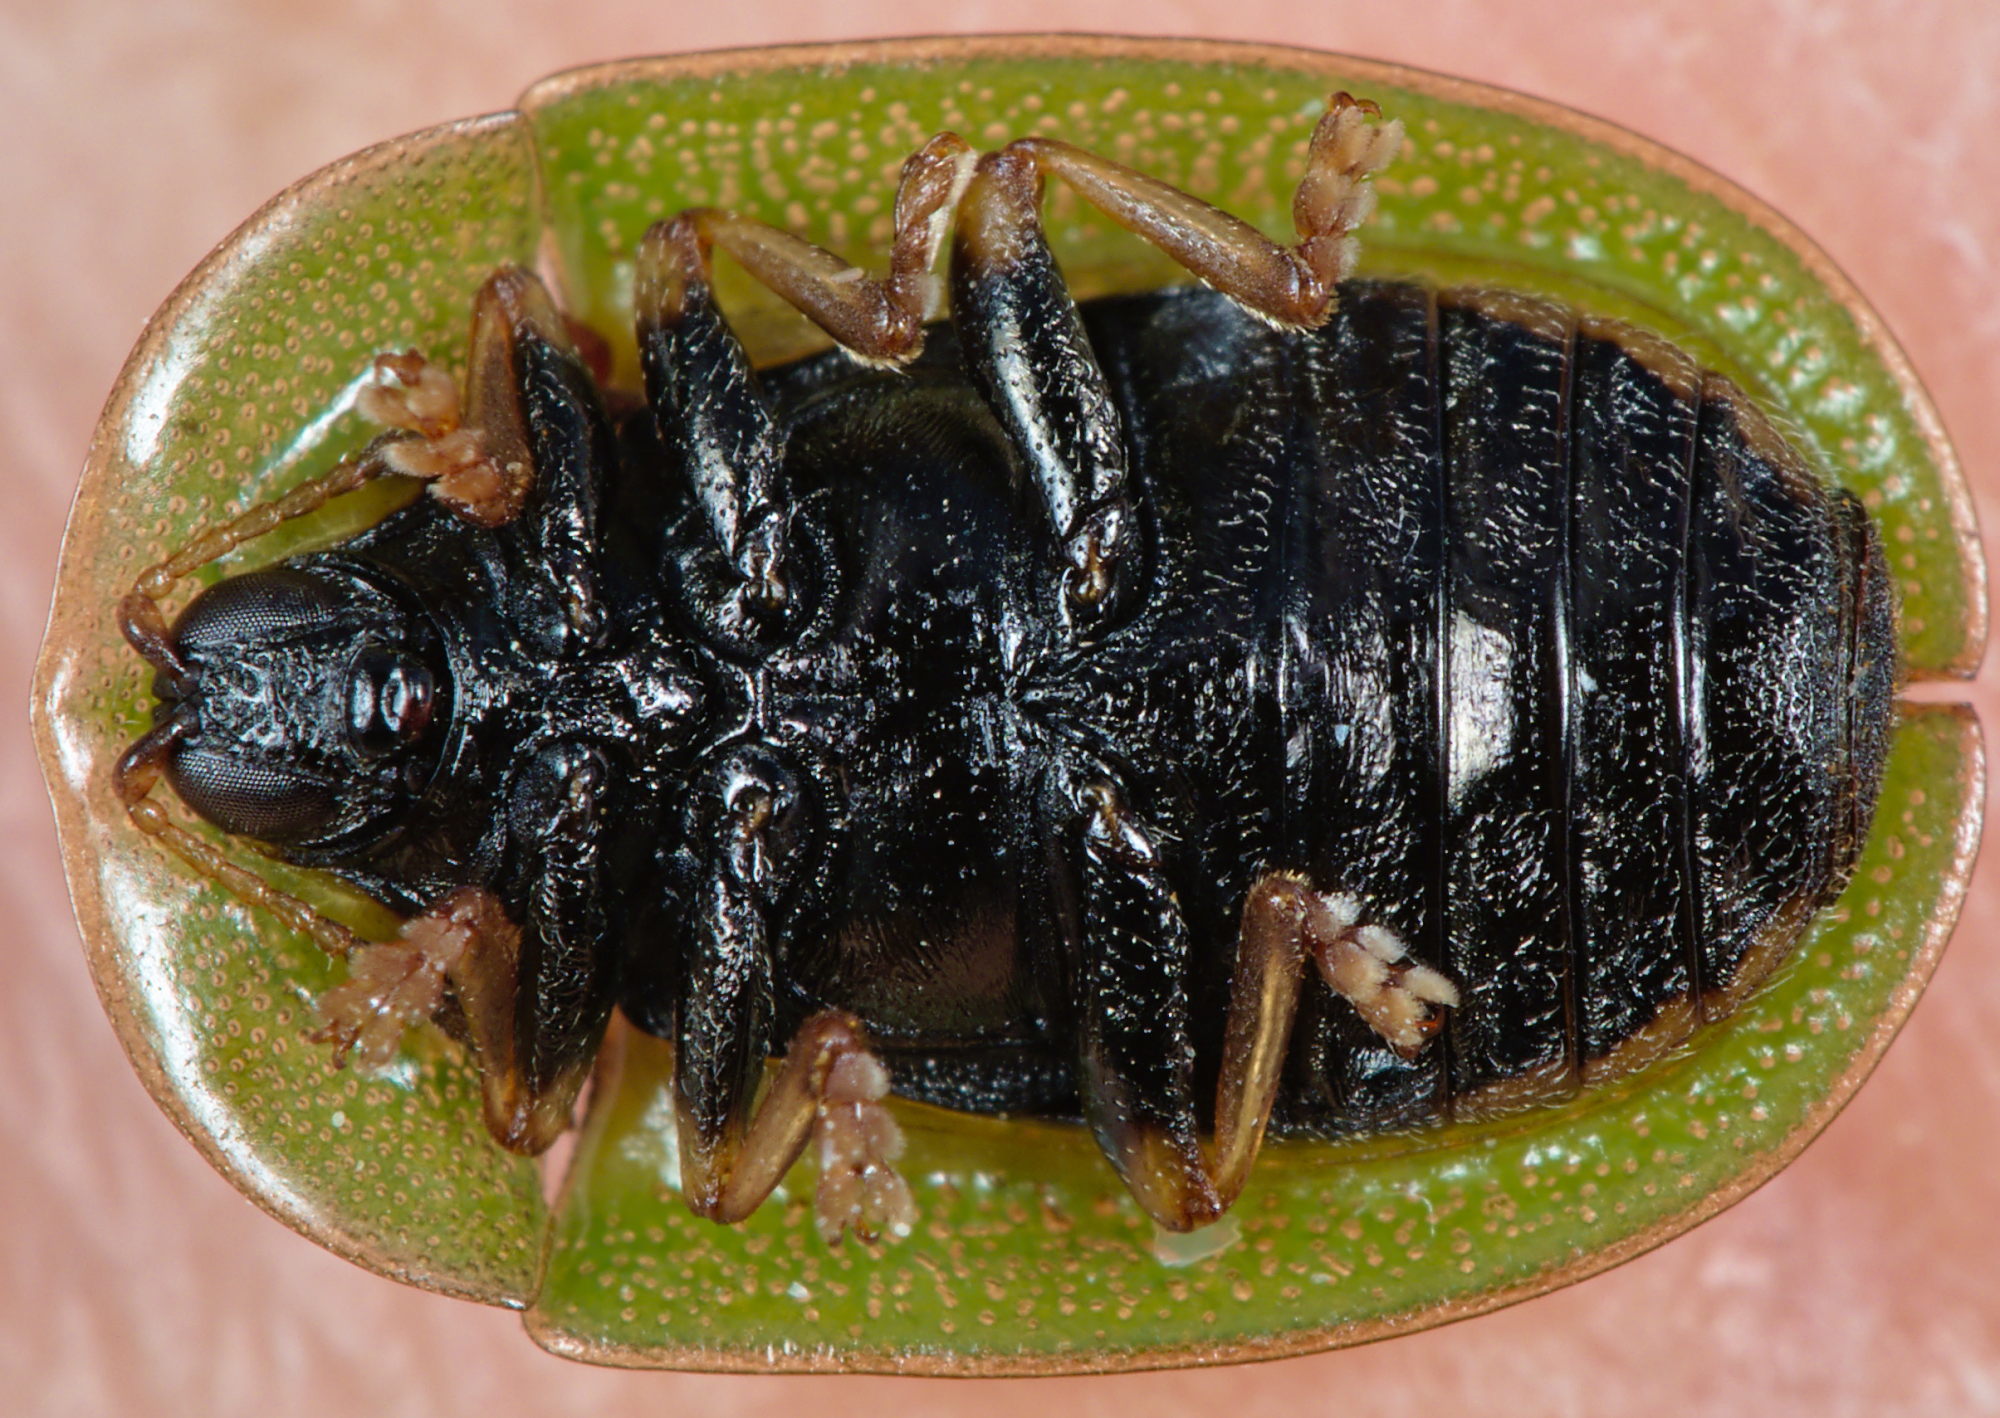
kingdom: Animalia
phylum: Arthropoda
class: Insecta
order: Coleoptera
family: Chrysomelidae
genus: Cassida
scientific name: Cassida rubiginosa
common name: Thistle tortoise beetle
